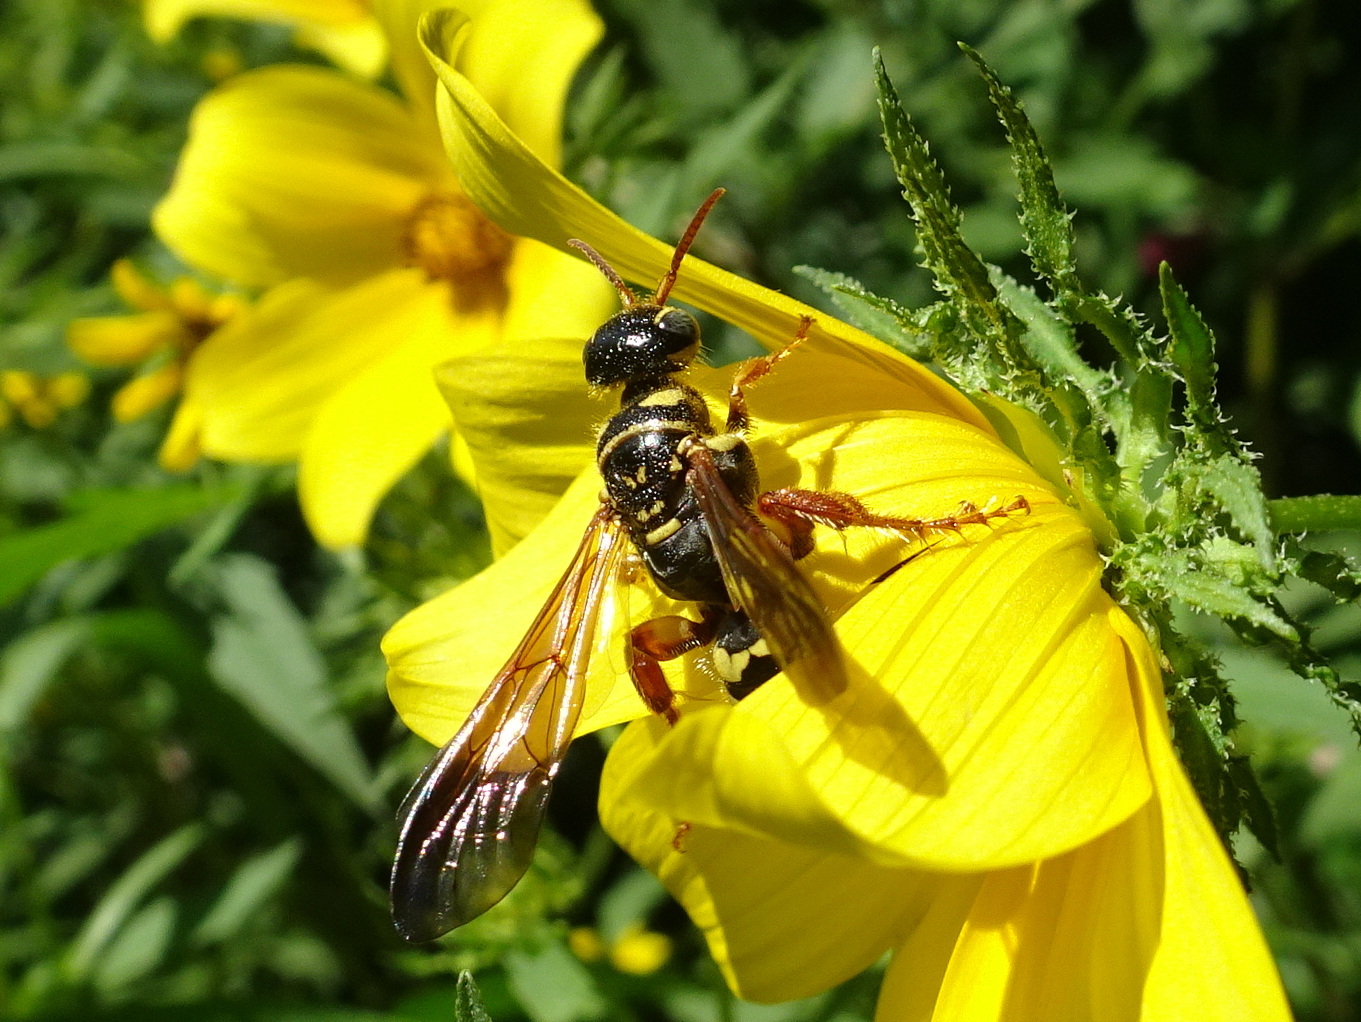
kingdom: Animalia
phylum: Arthropoda
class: Insecta
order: Hymenoptera
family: Tiphiidae
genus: Myzinum
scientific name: Myzinum quinquecinctum
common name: Five-banded thynnid wasp
